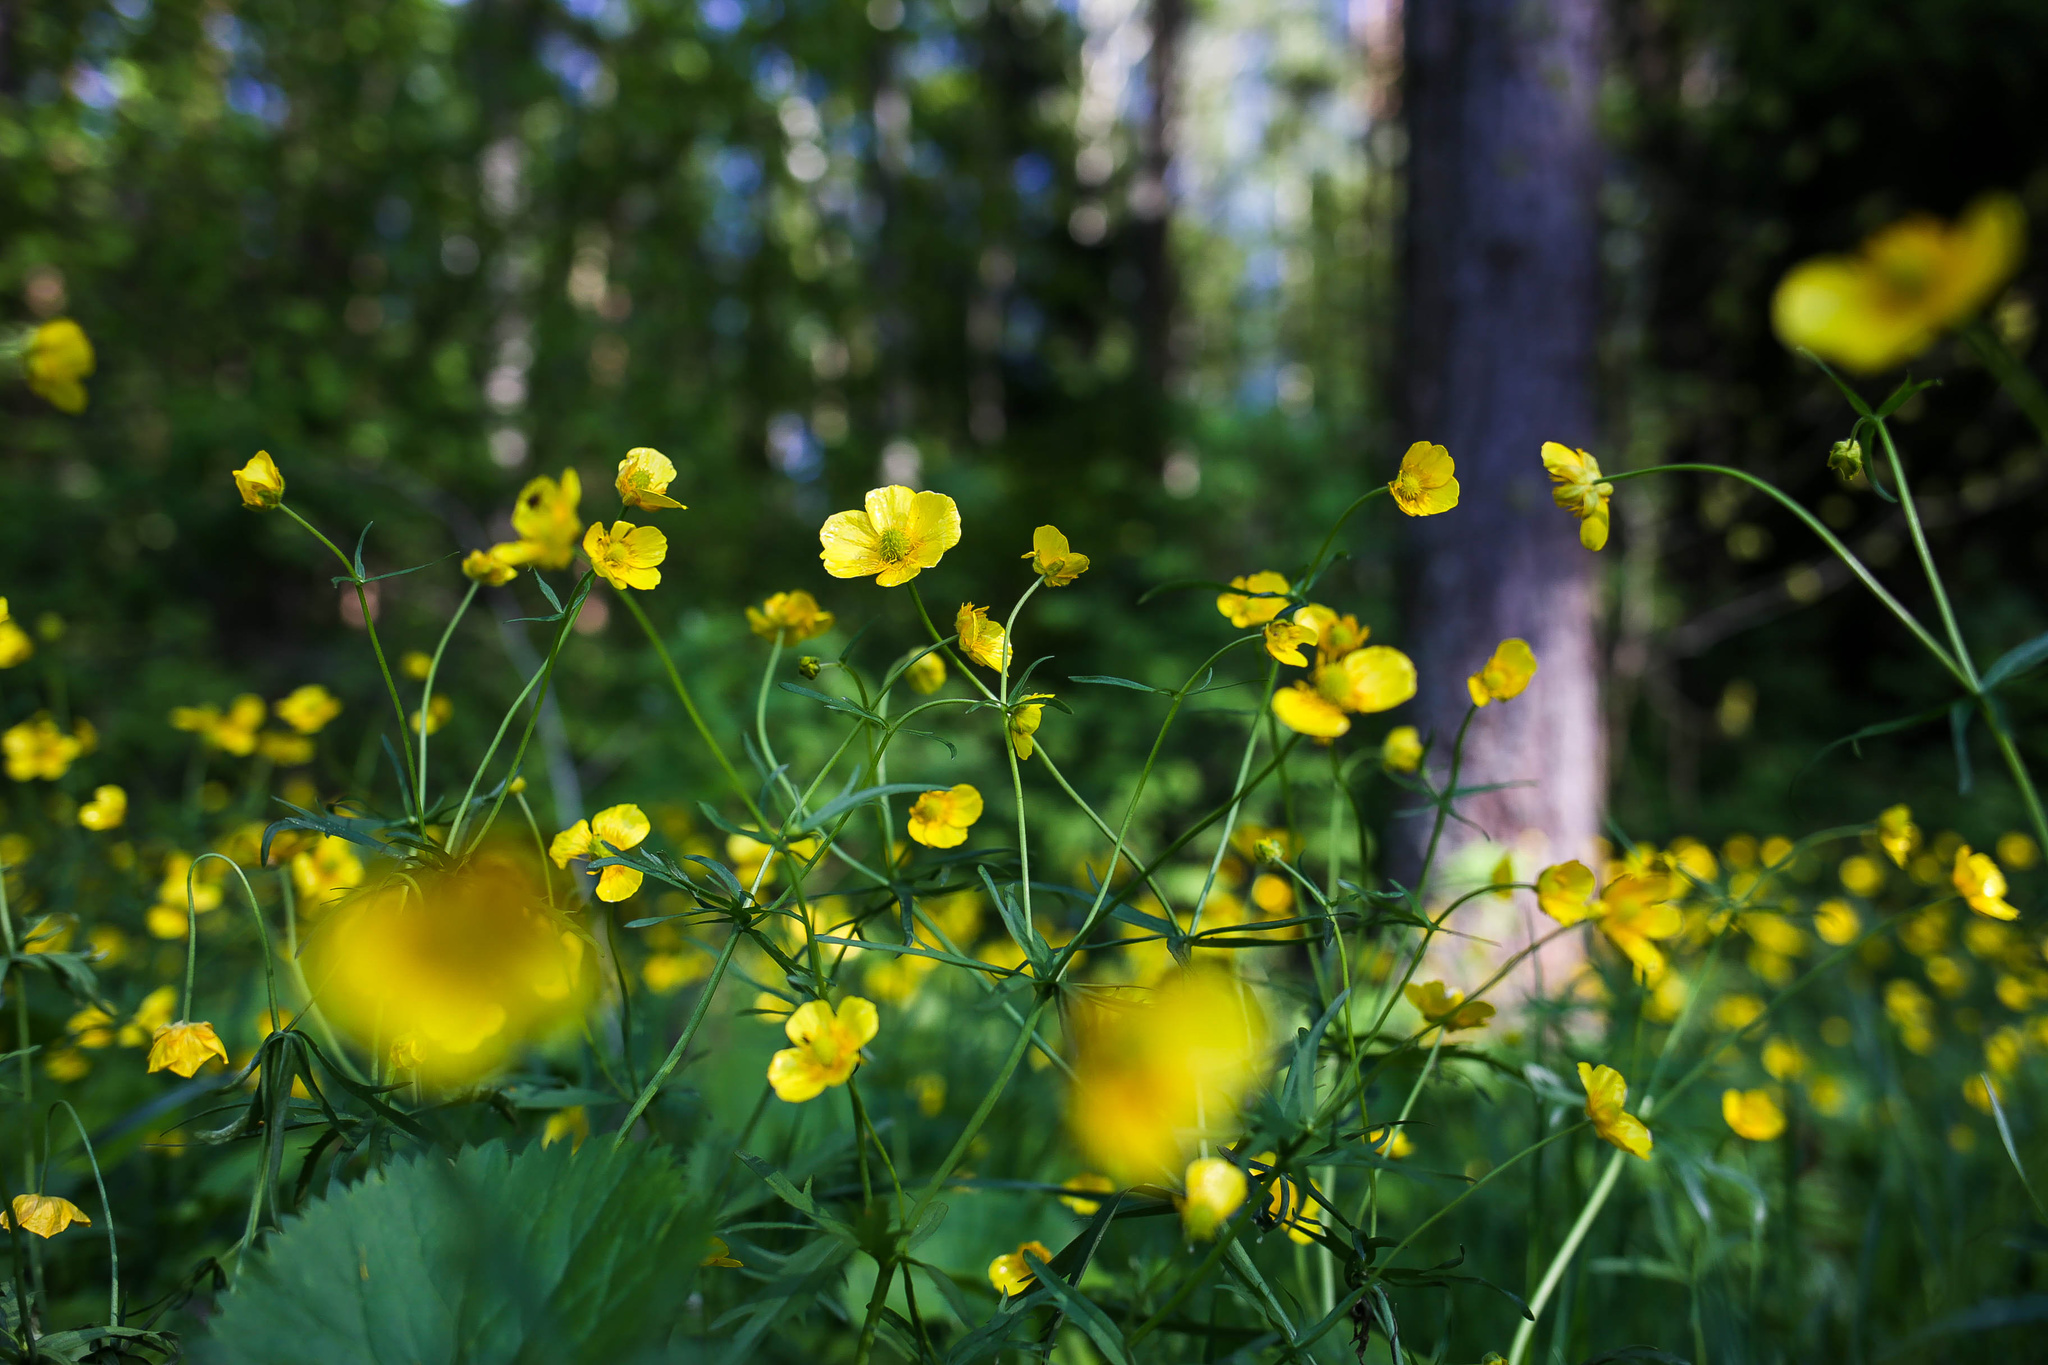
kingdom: Plantae
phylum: Tracheophyta
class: Magnoliopsida
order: Ranunculales
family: Ranunculaceae
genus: Ranunculus
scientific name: Ranunculus cassubicus
